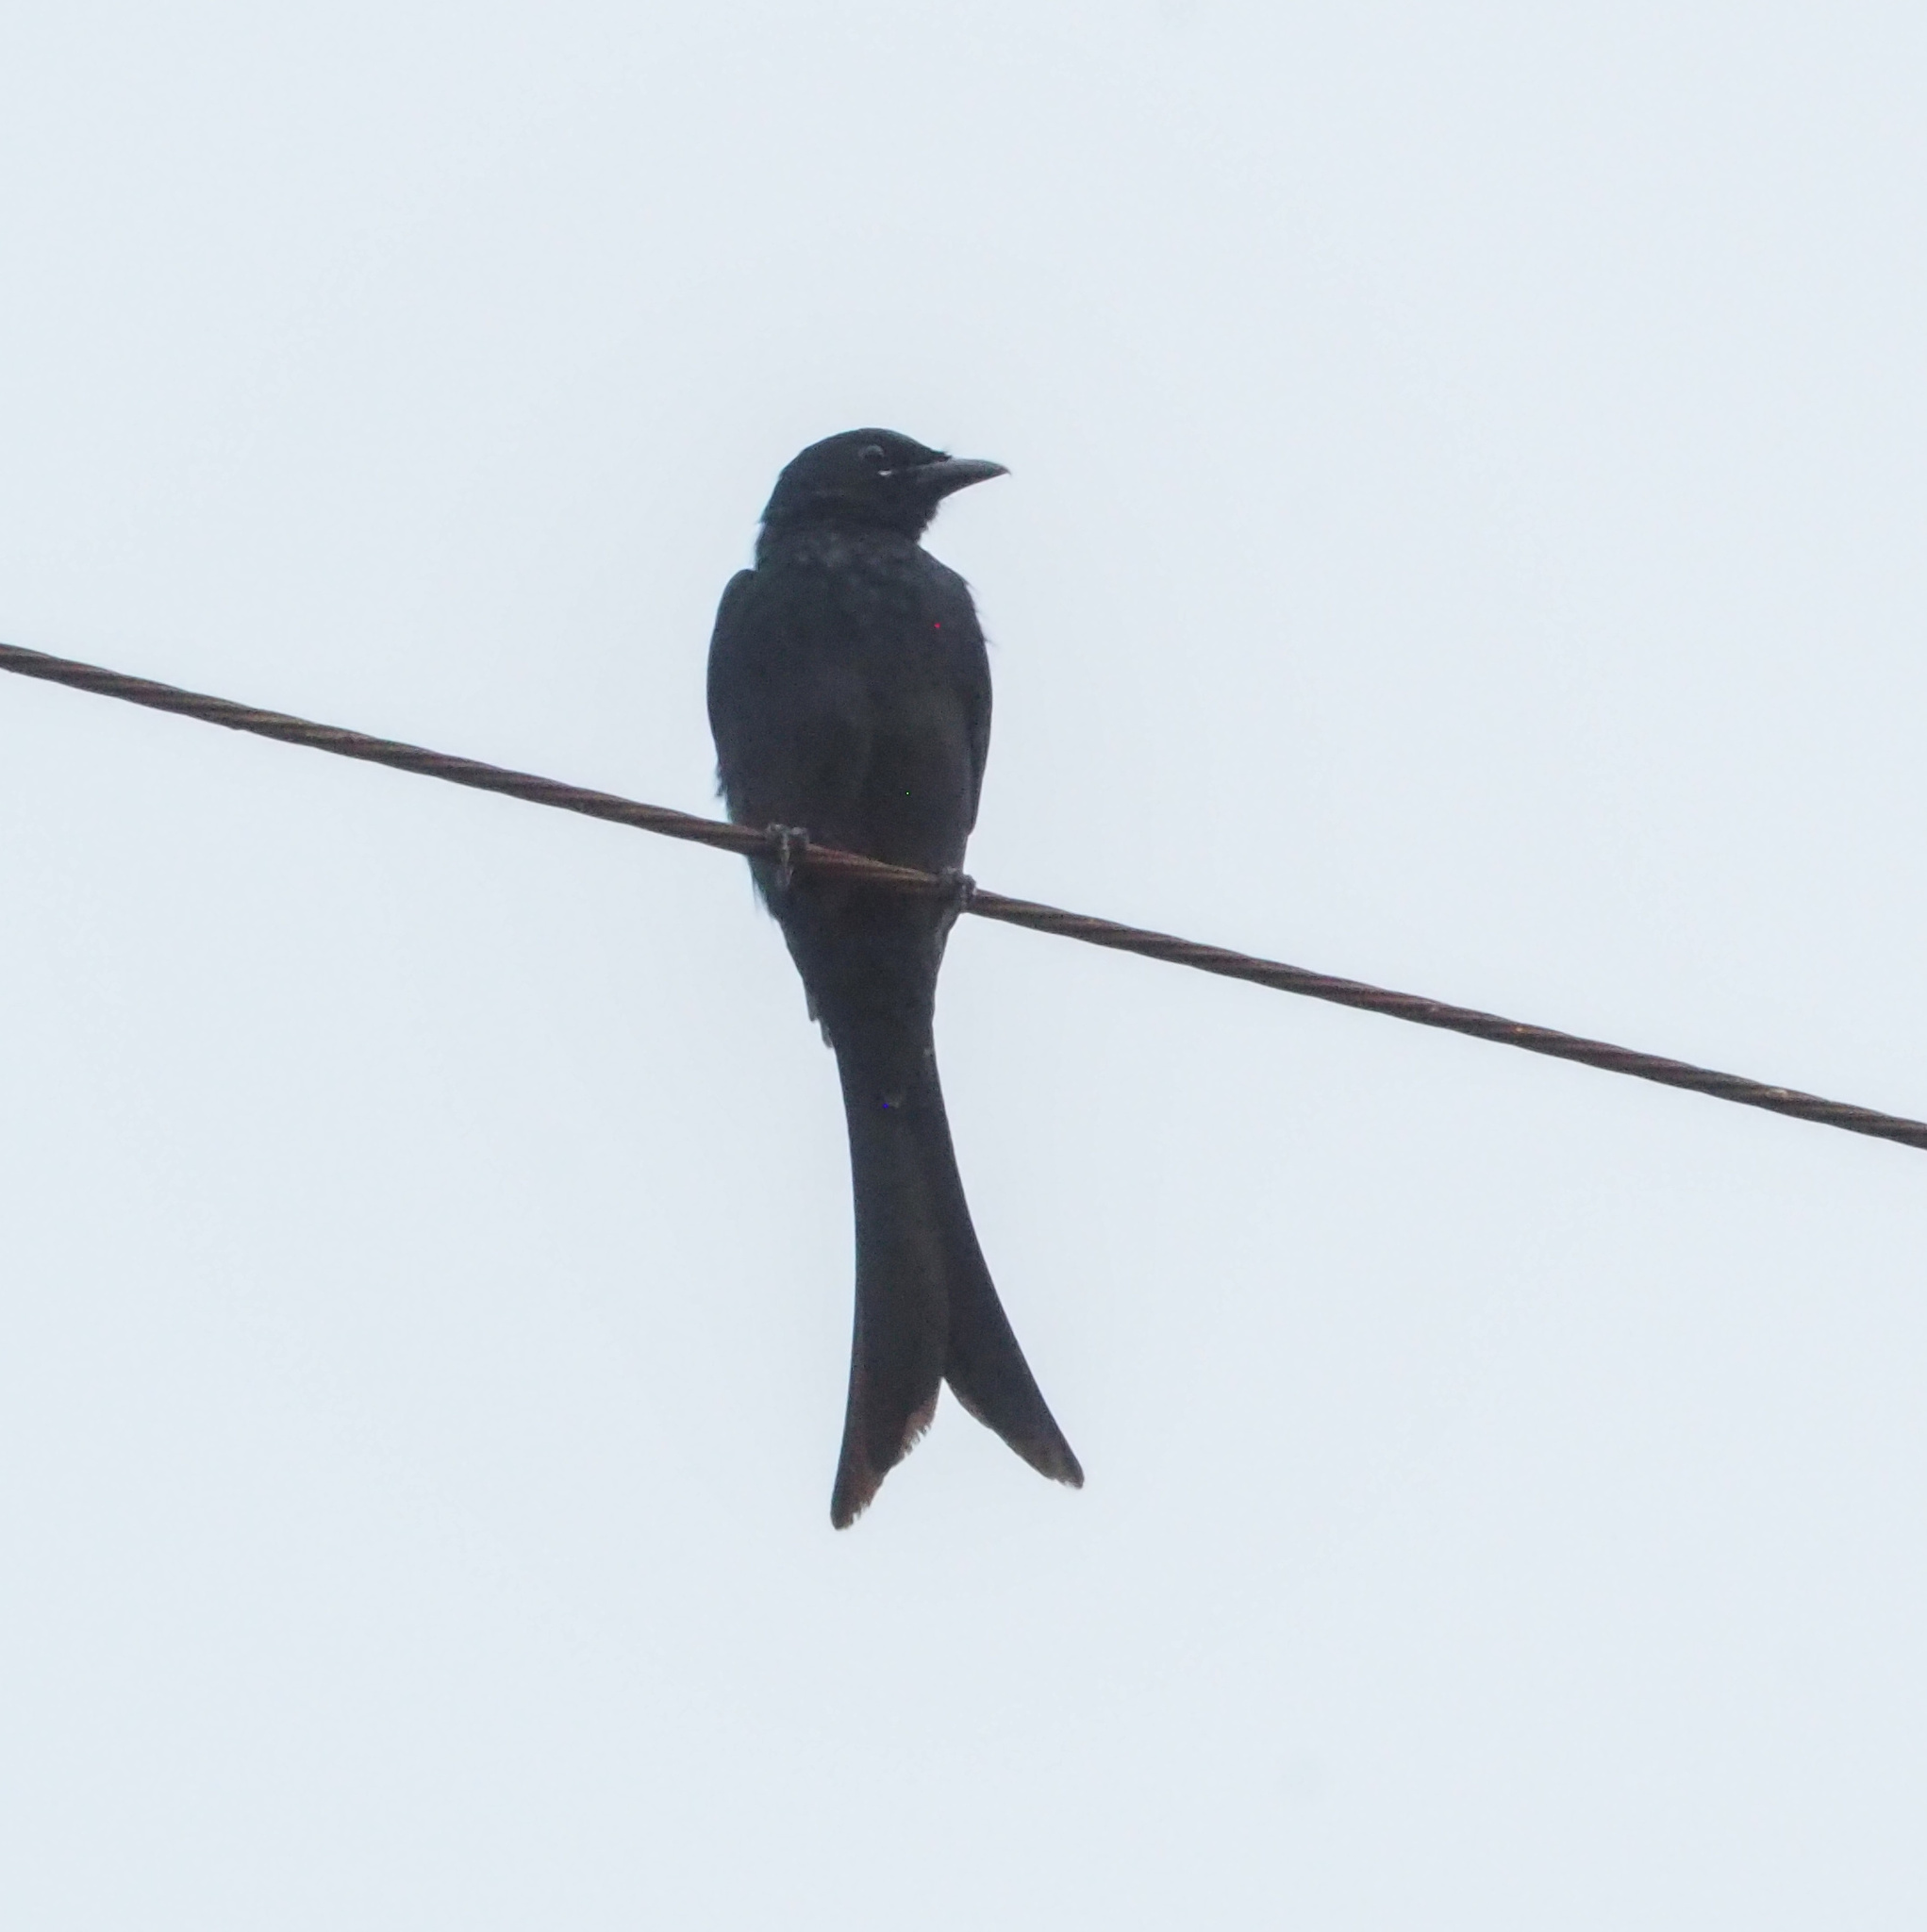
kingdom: Animalia
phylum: Chordata
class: Aves
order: Passeriformes
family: Dicruridae
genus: Dicrurus
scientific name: Dicrurus macrocercus
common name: Black drongo
